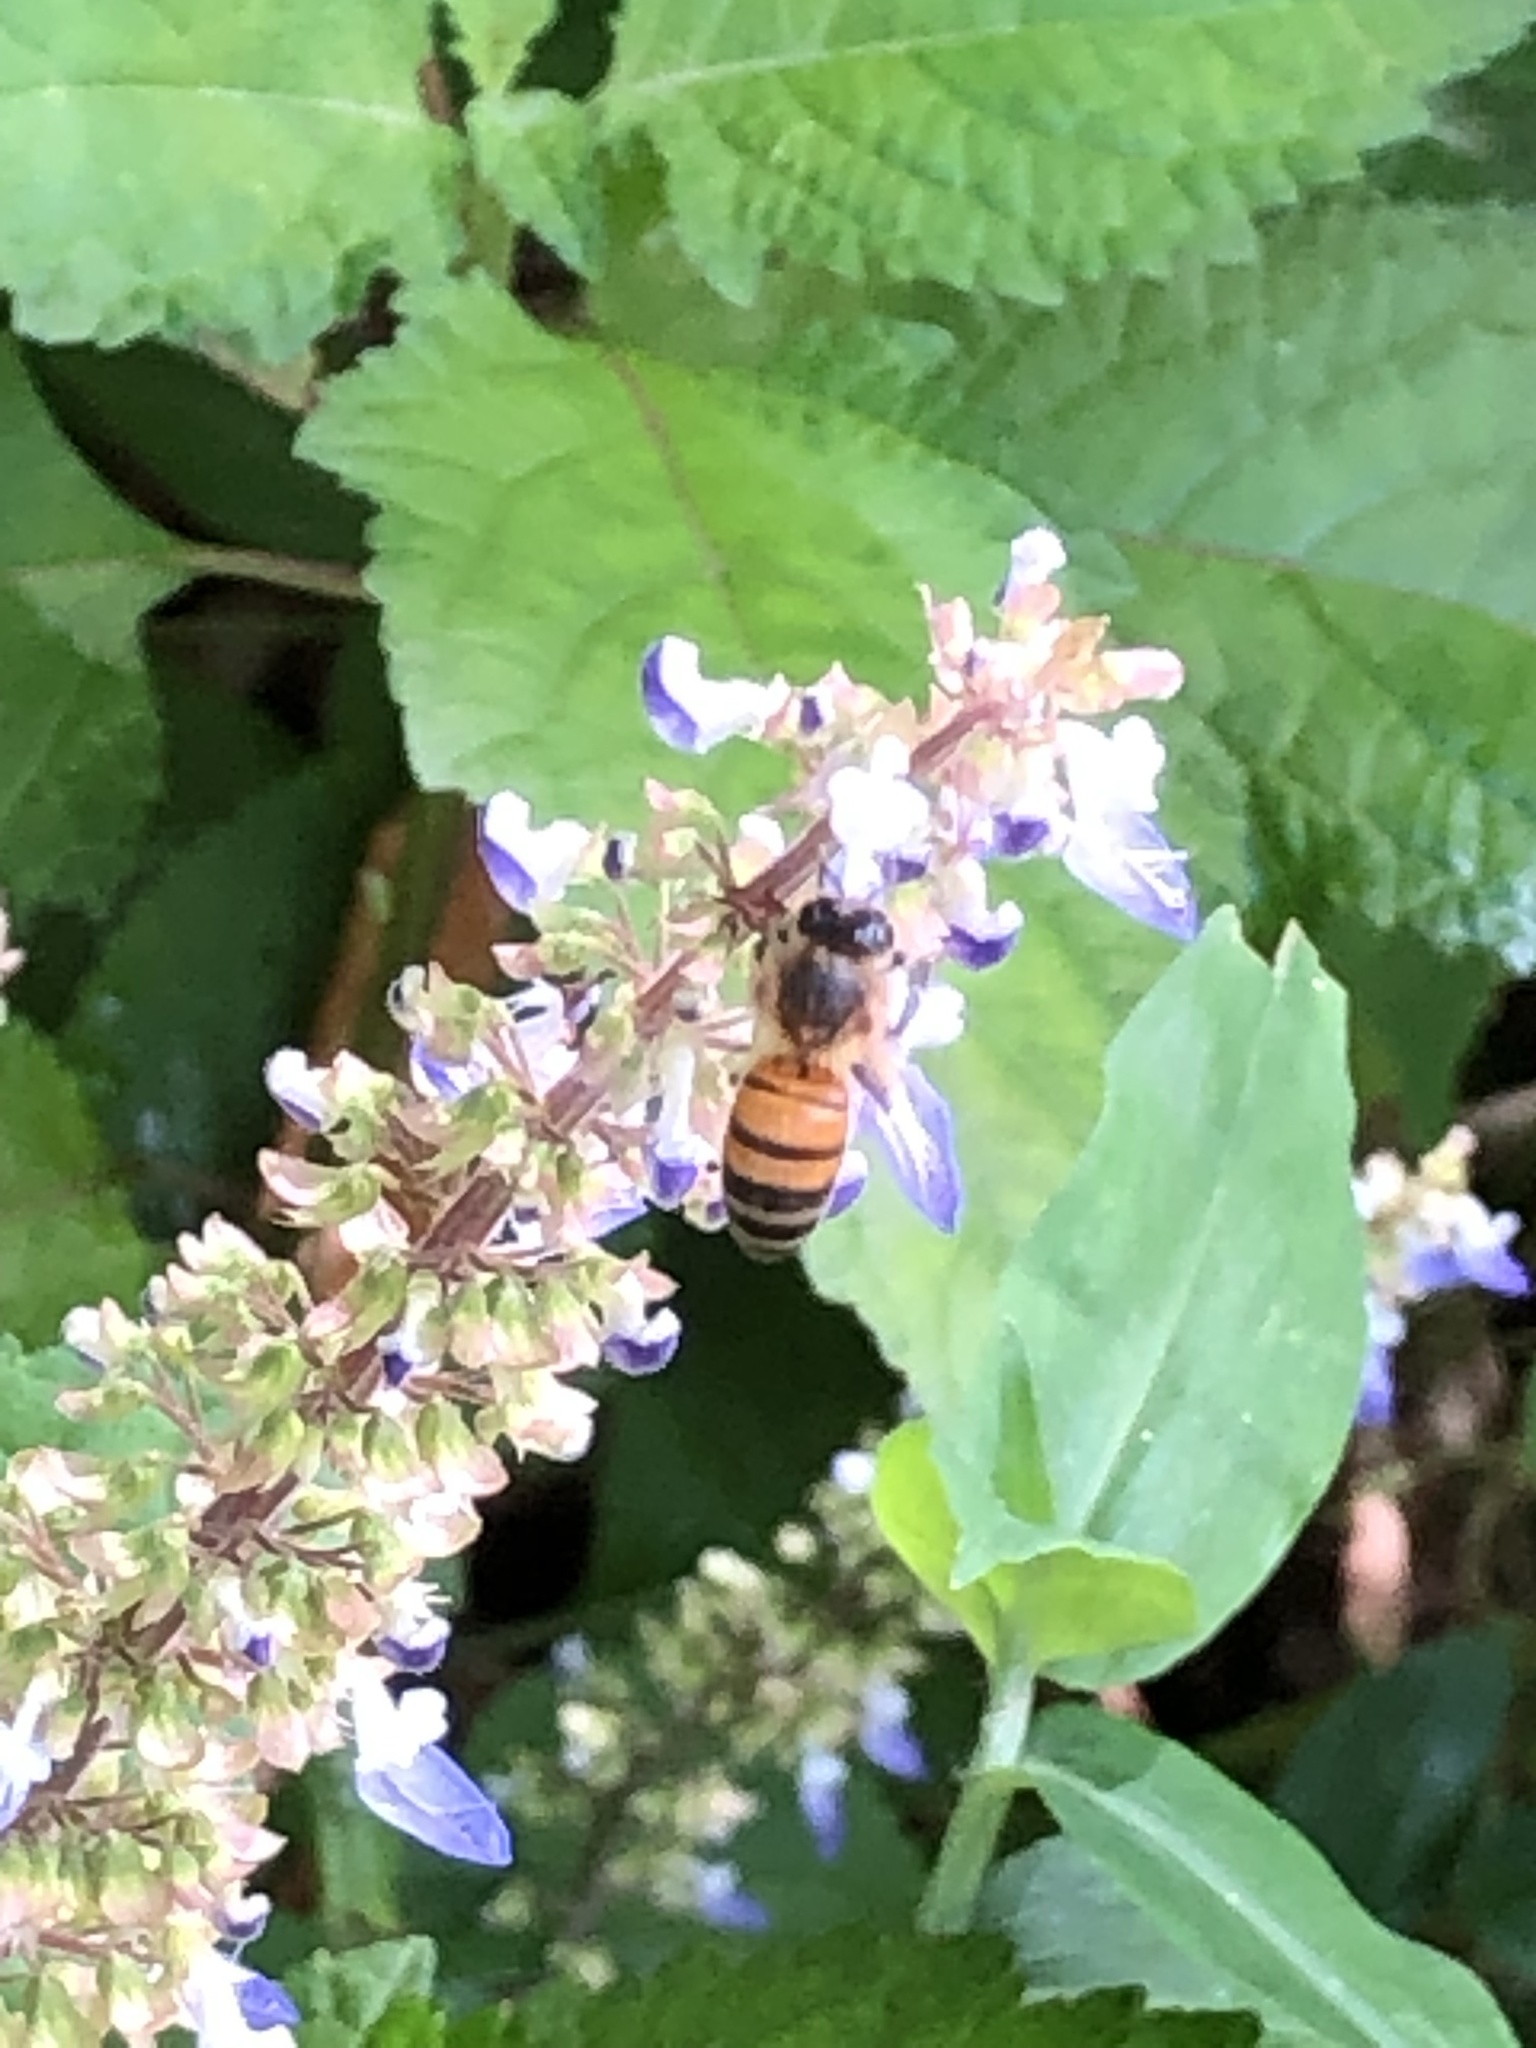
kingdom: Animalia
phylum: Arthropoda
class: Insecta
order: Hymenoptera
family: Apidae
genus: Apis
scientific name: Apis mellifera
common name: Honey bee
